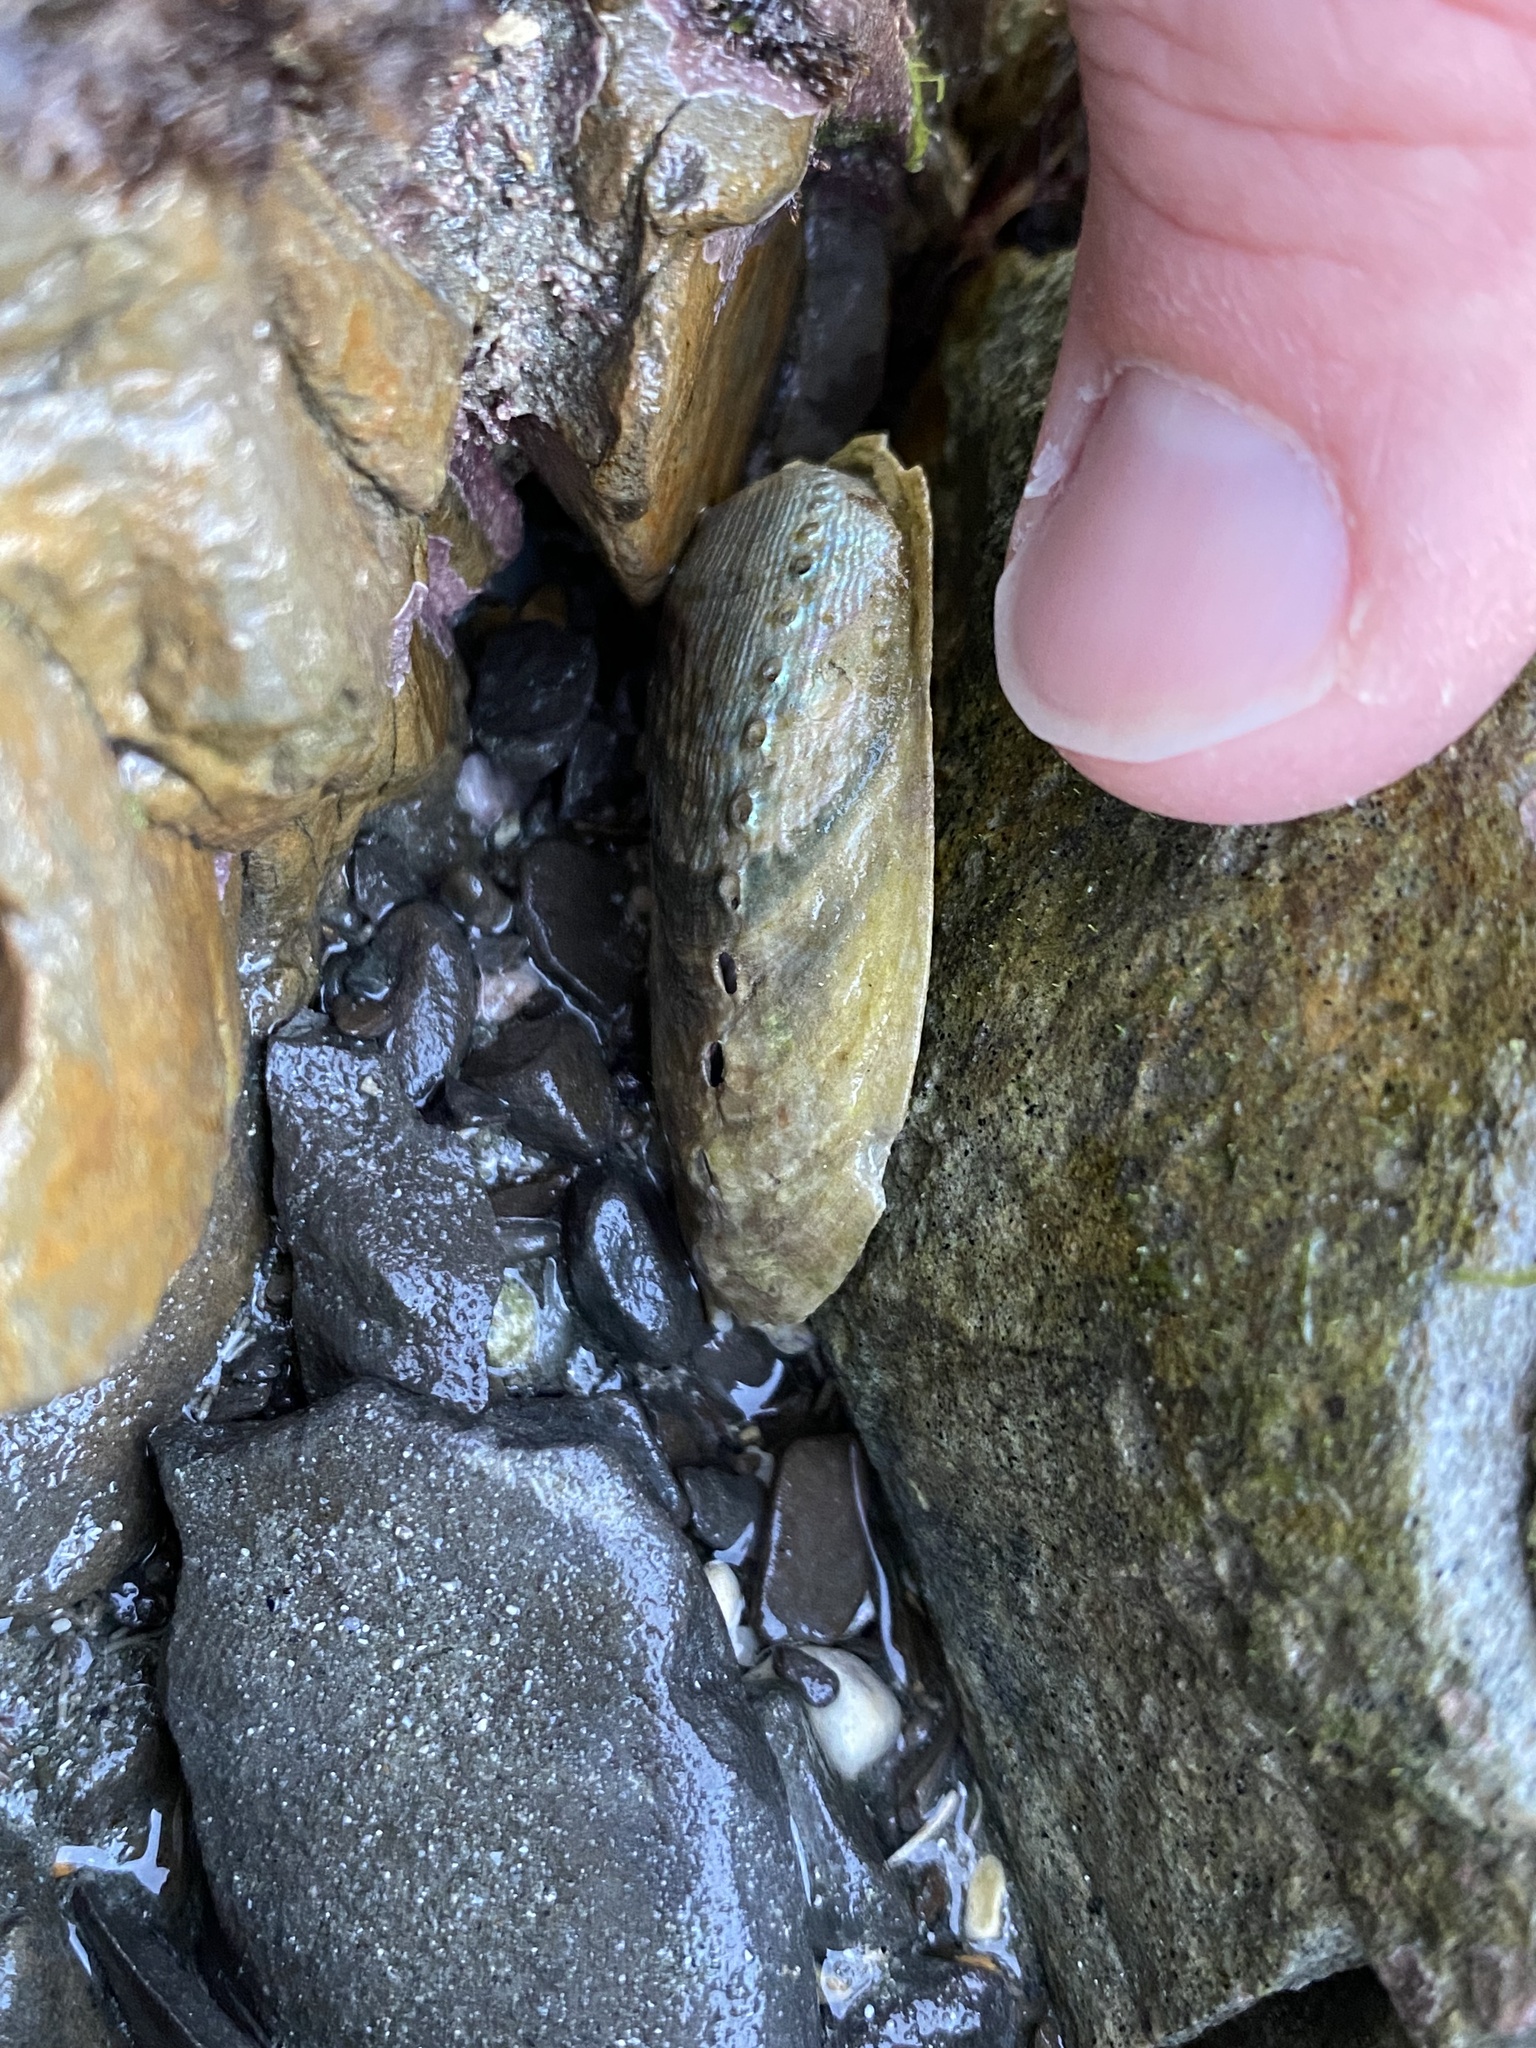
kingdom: Animalia
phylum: Mollusca
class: Gastropoda
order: Lepetellida
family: Haliotidae
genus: Haliotis
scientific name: Haliotis iris
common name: Abalone
